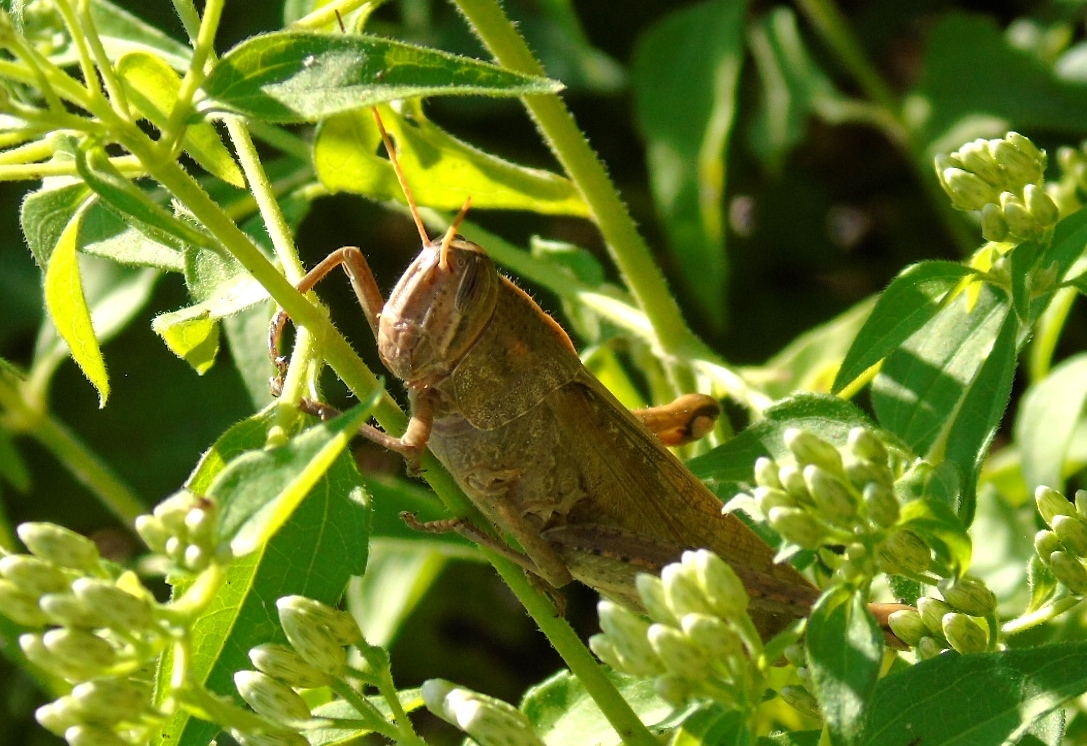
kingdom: Animalia
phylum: Arthropoda
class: Insecta
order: Orthoptera
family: Acrididae
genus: Schistocerca
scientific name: Schistocerca
